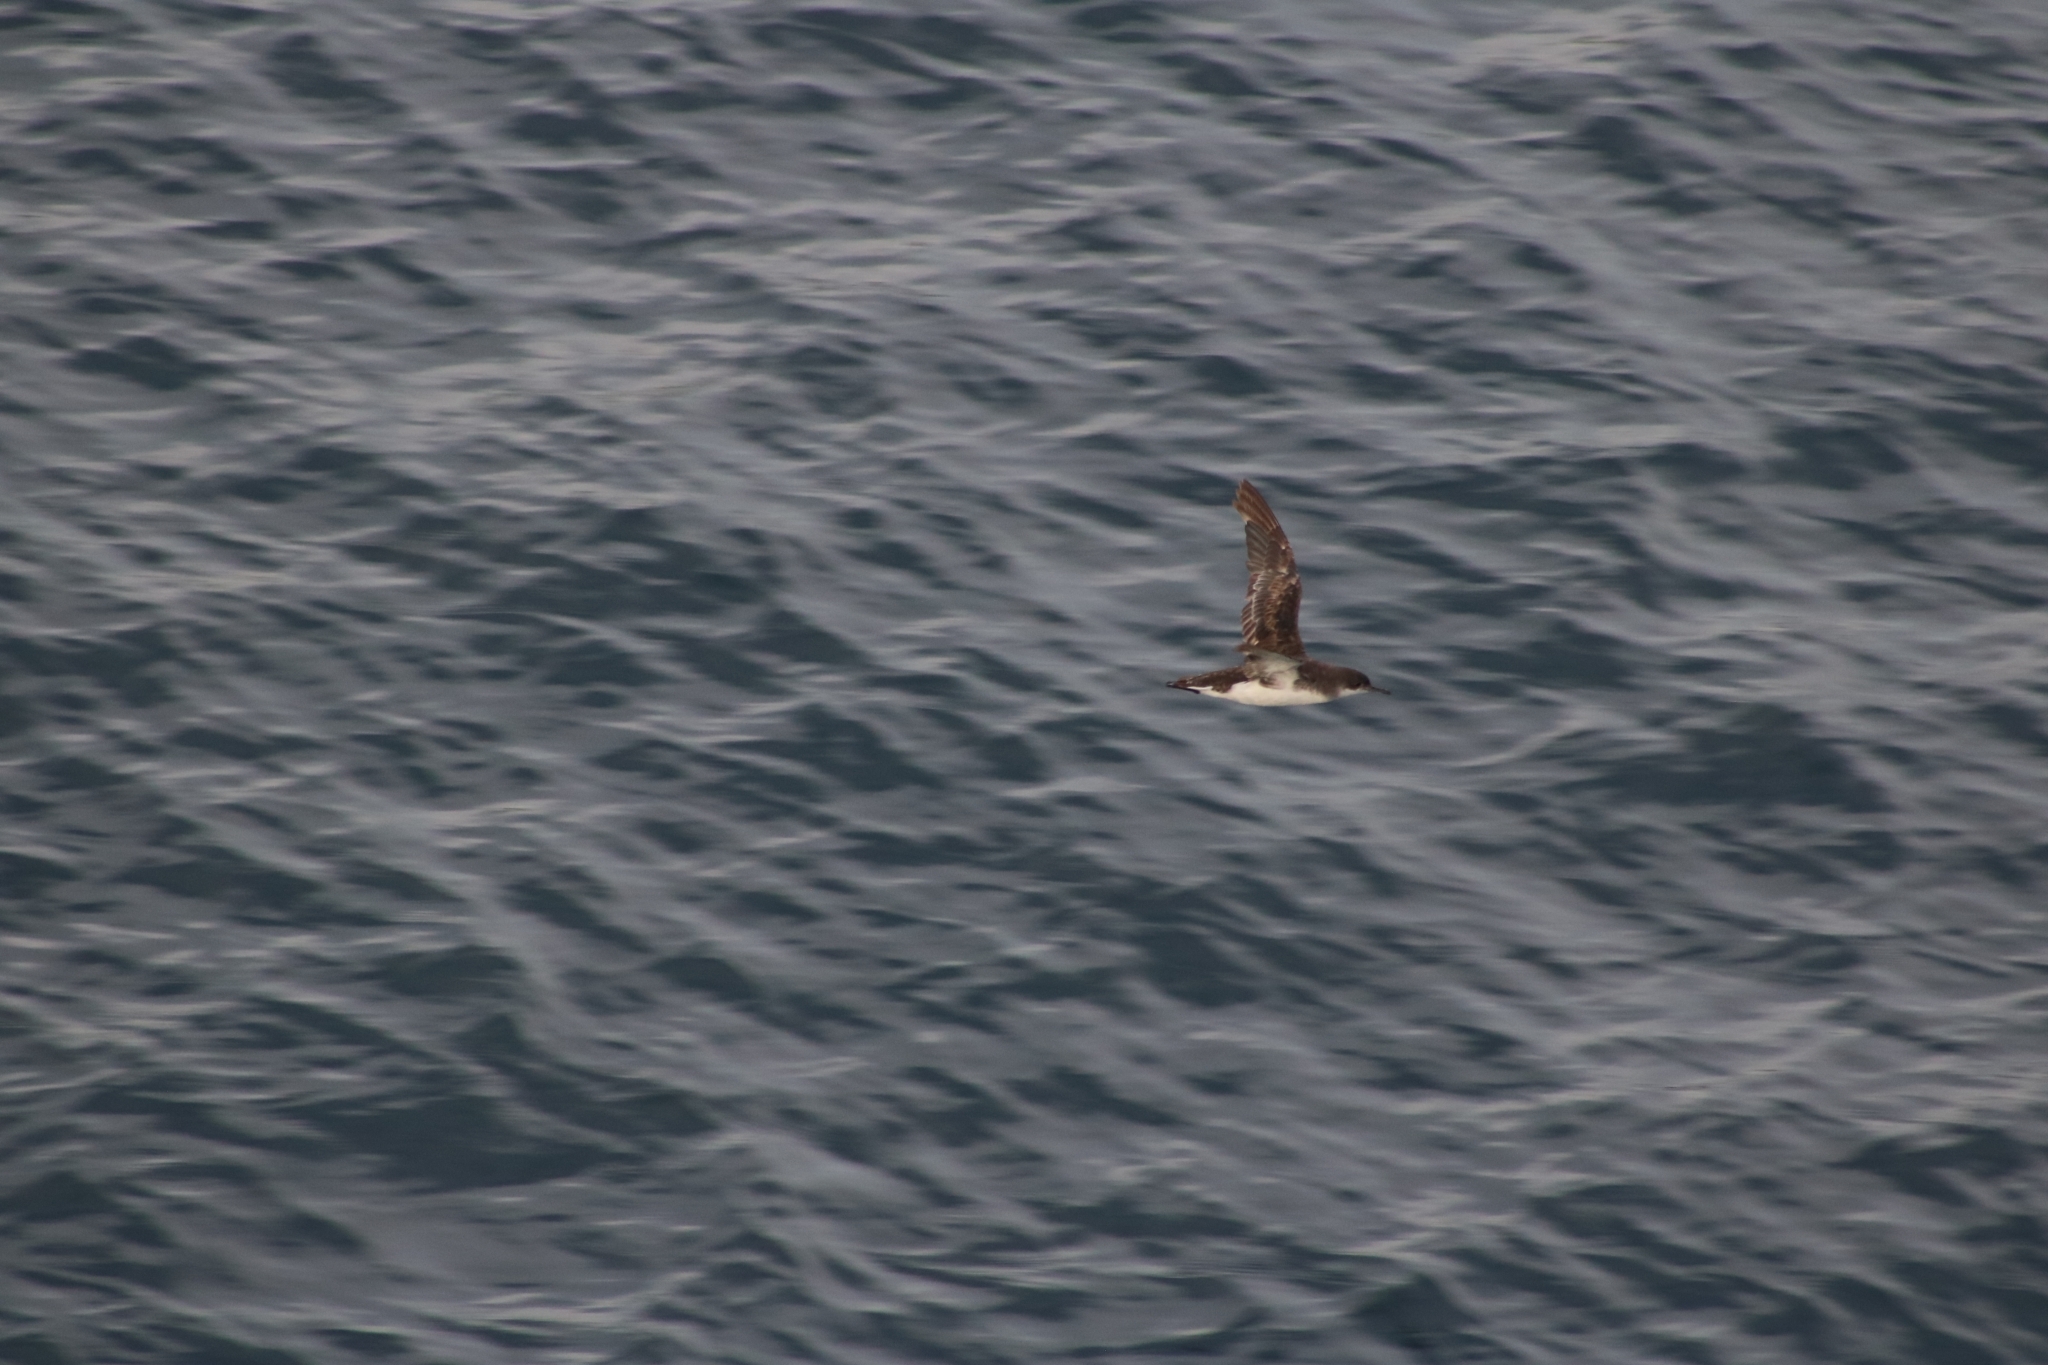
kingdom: Animalia
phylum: Chordata
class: Aves
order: Procellariiformes
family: Procellariidae
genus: Puffinus
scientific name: Puffinus gavia
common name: Fluttering shearwater
